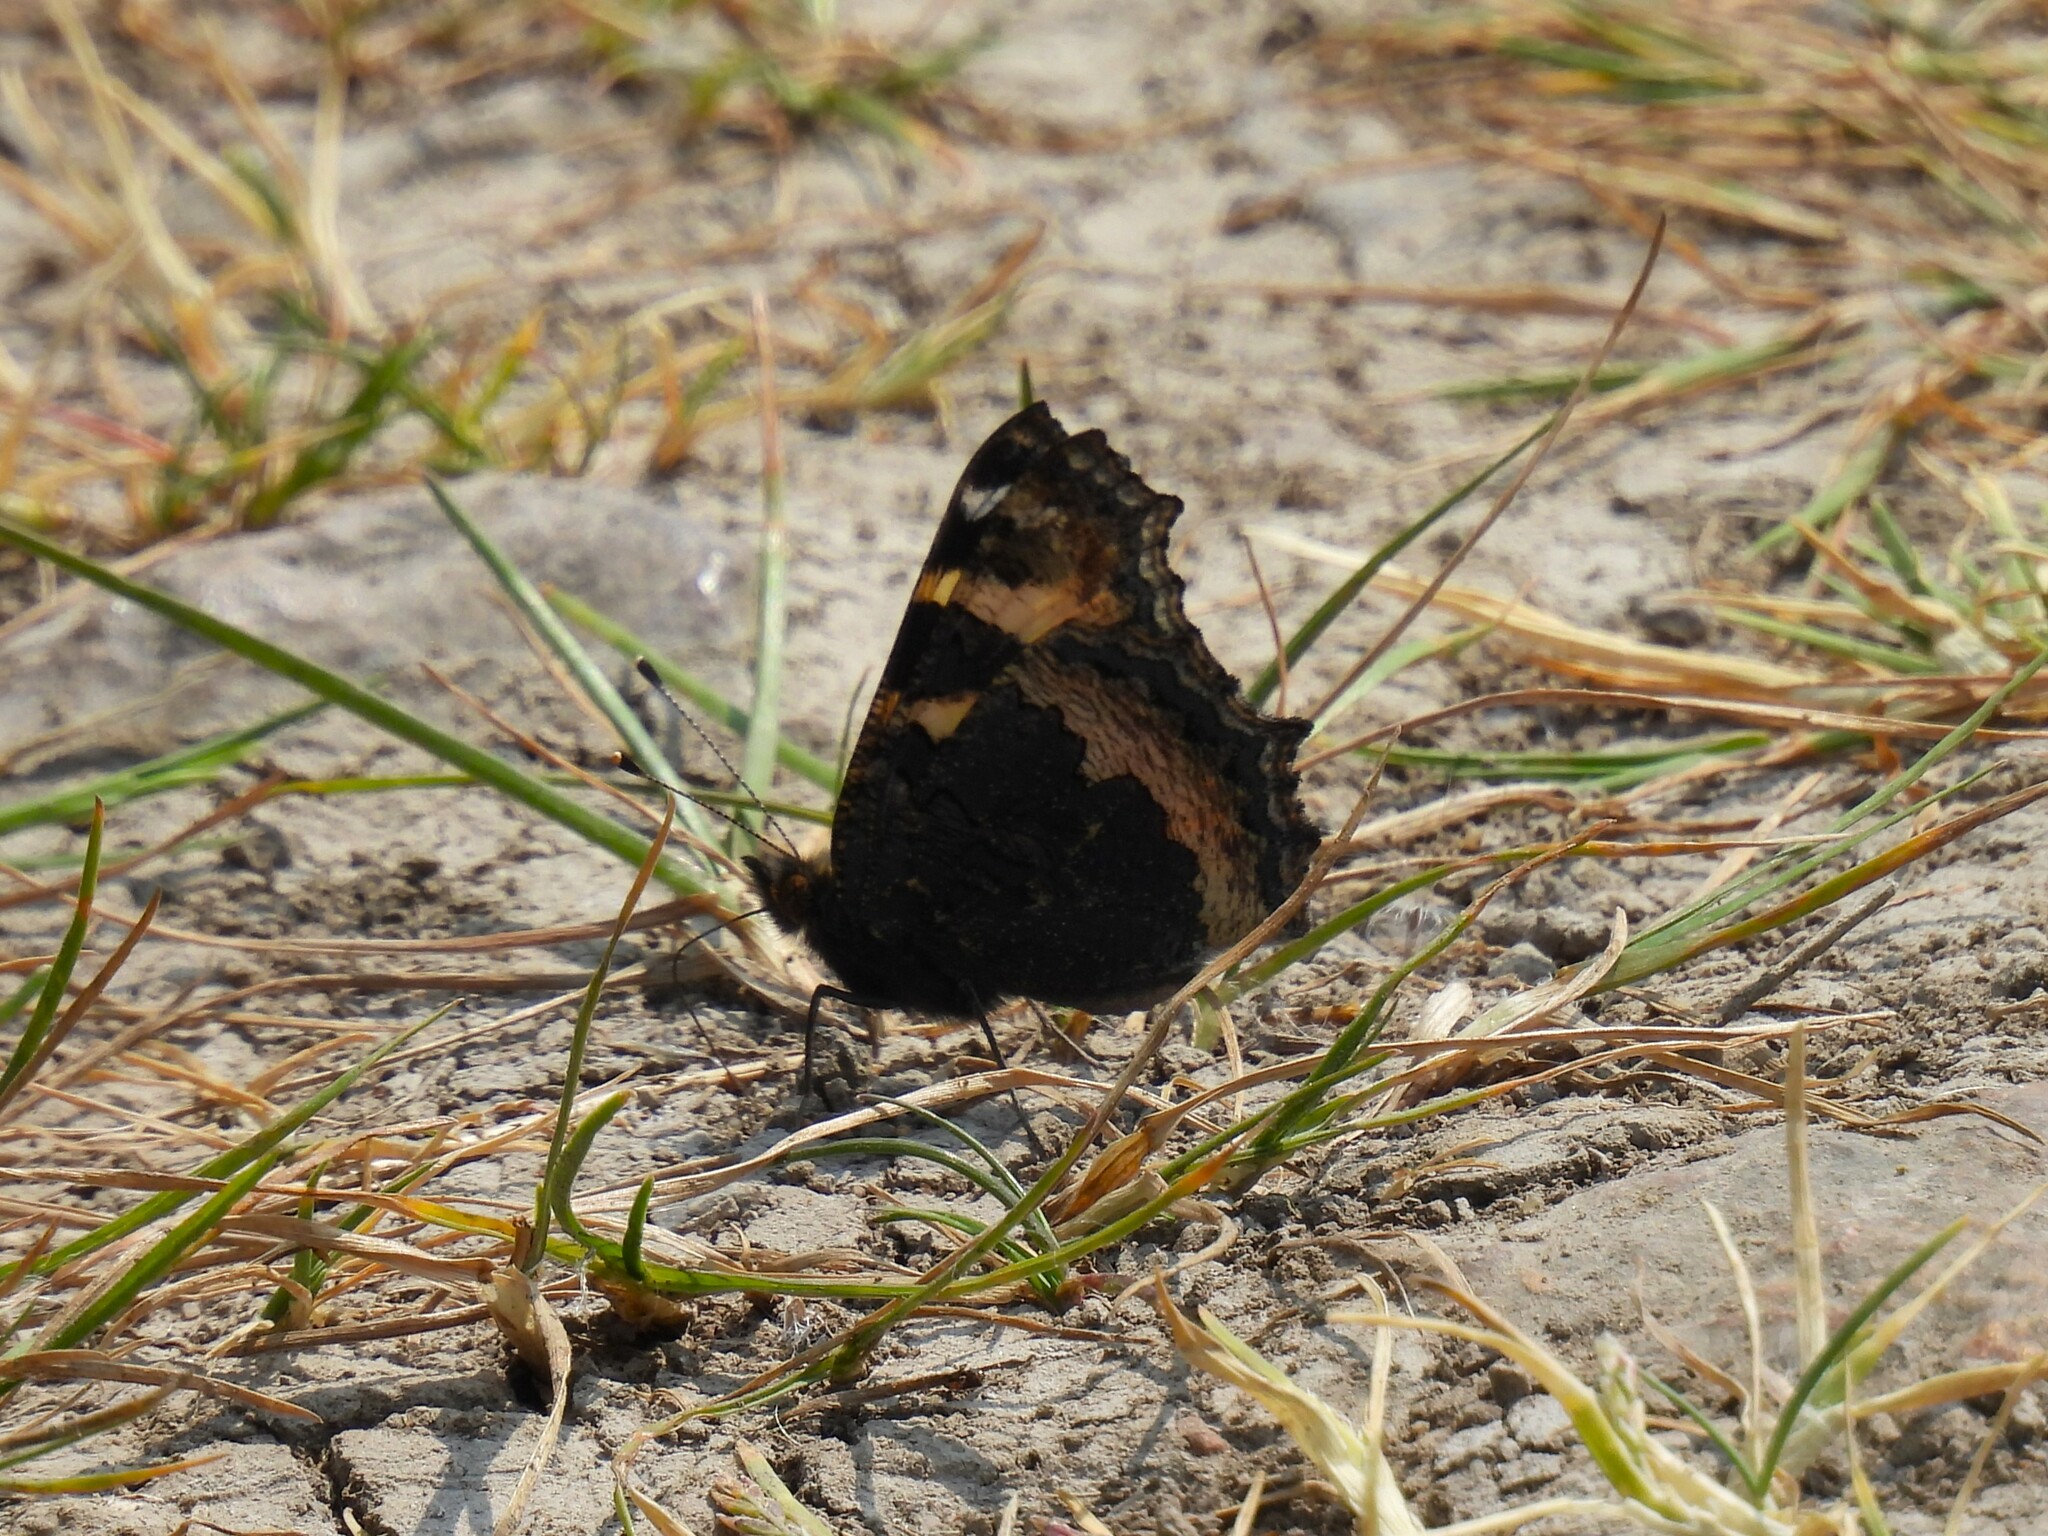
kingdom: Animalia
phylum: Arthropoda
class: Insecta
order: Lepidoptera
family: Nymphalidae
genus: Aglais
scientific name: Aglais urticae
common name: Small tortoiseshell
